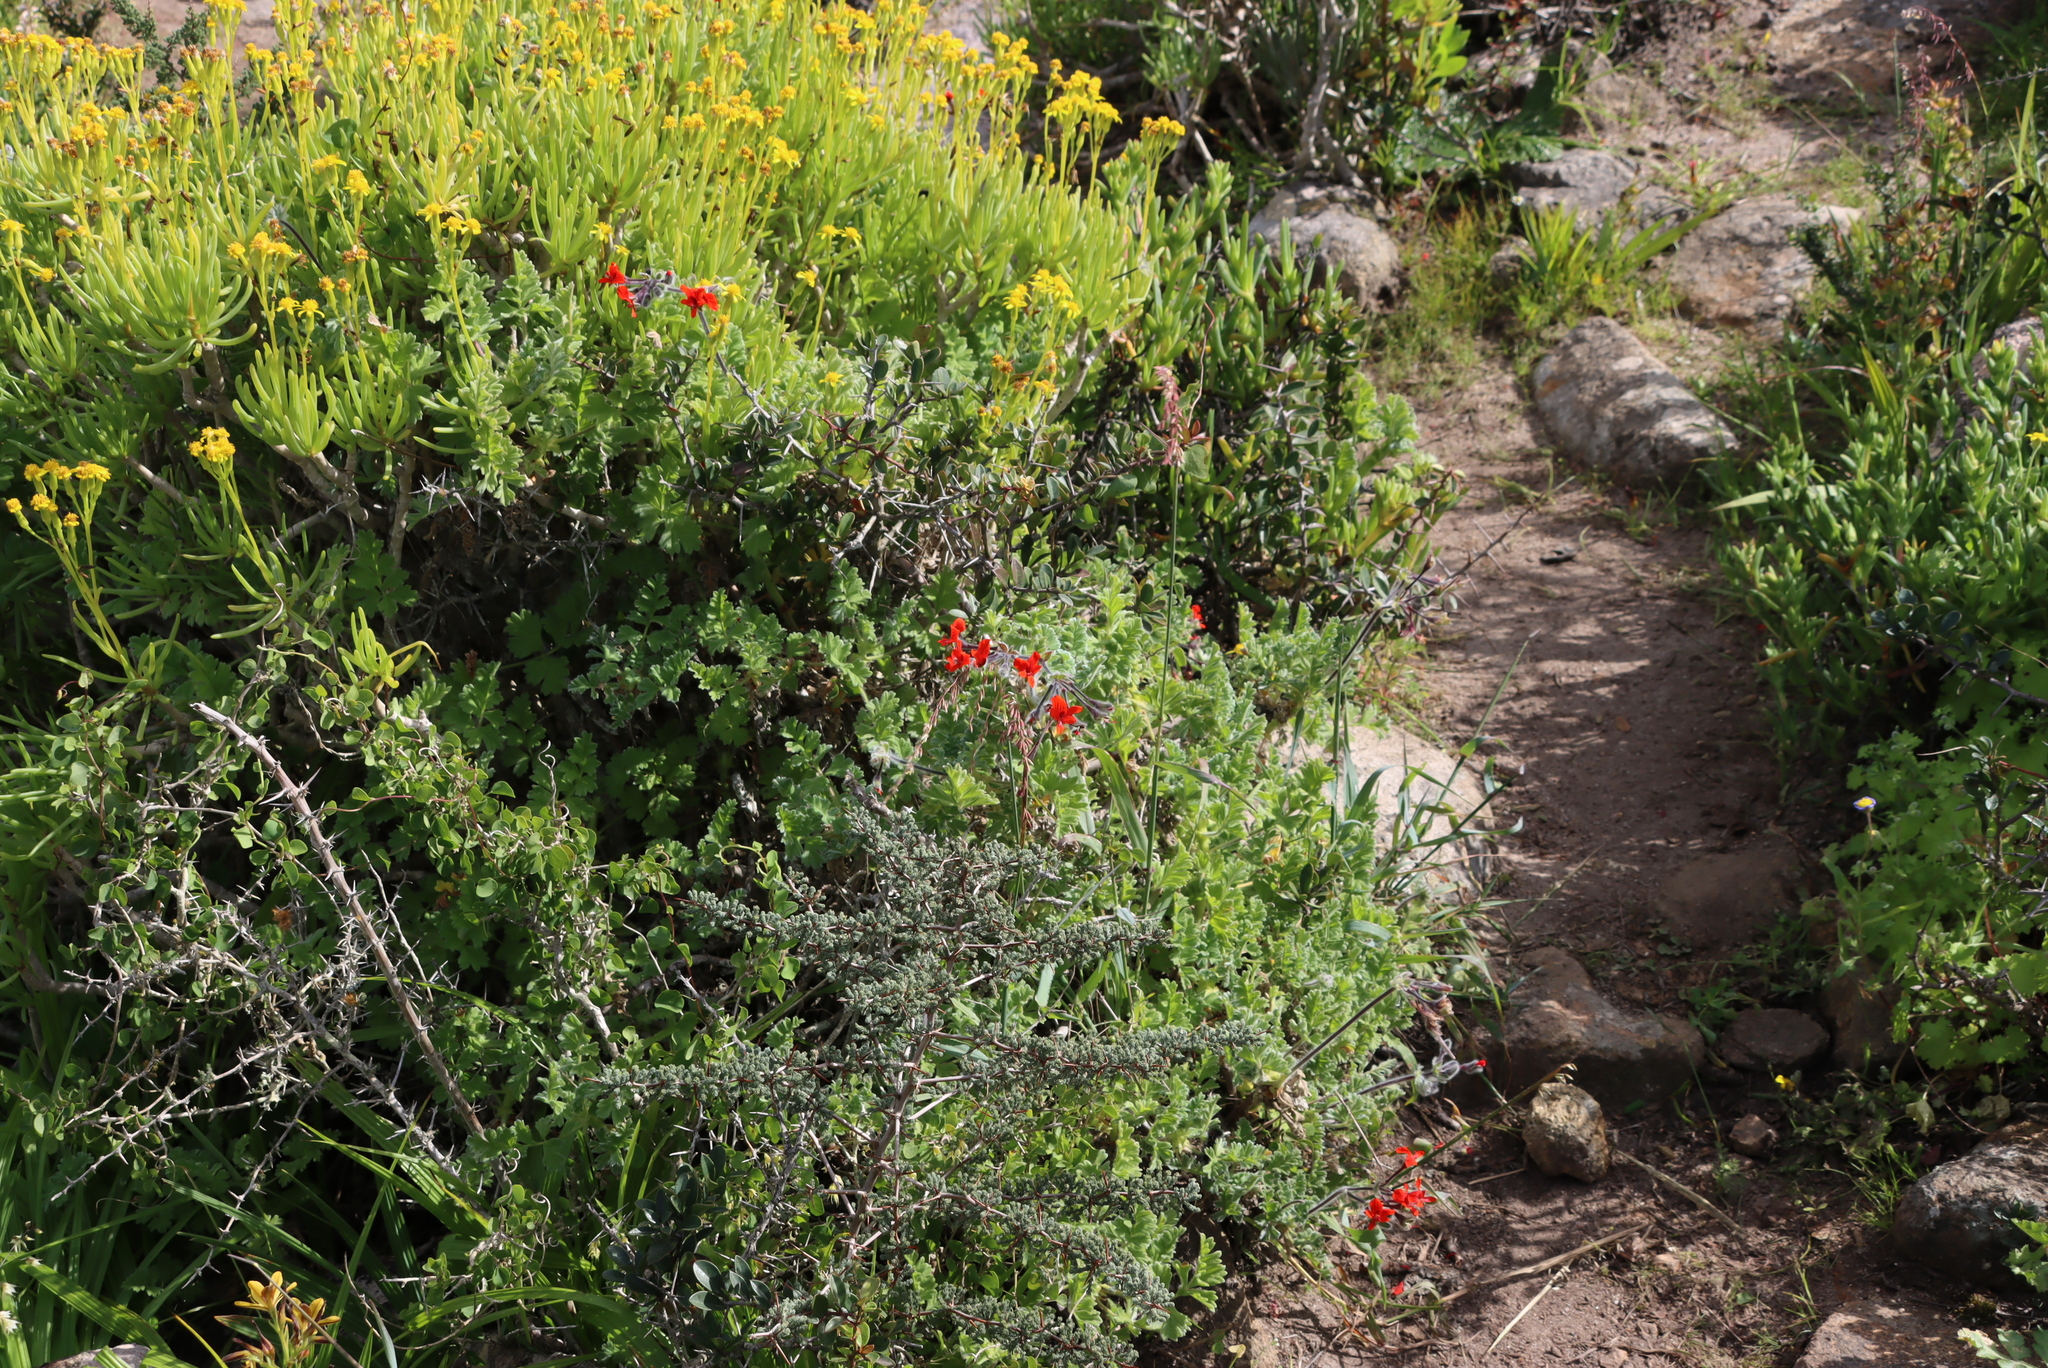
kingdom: Plantae
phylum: Tracheophyta
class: Magnoliopsida
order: Asterales
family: Asteraceae
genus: Crassothonna
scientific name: Crassothonna cylindrica
